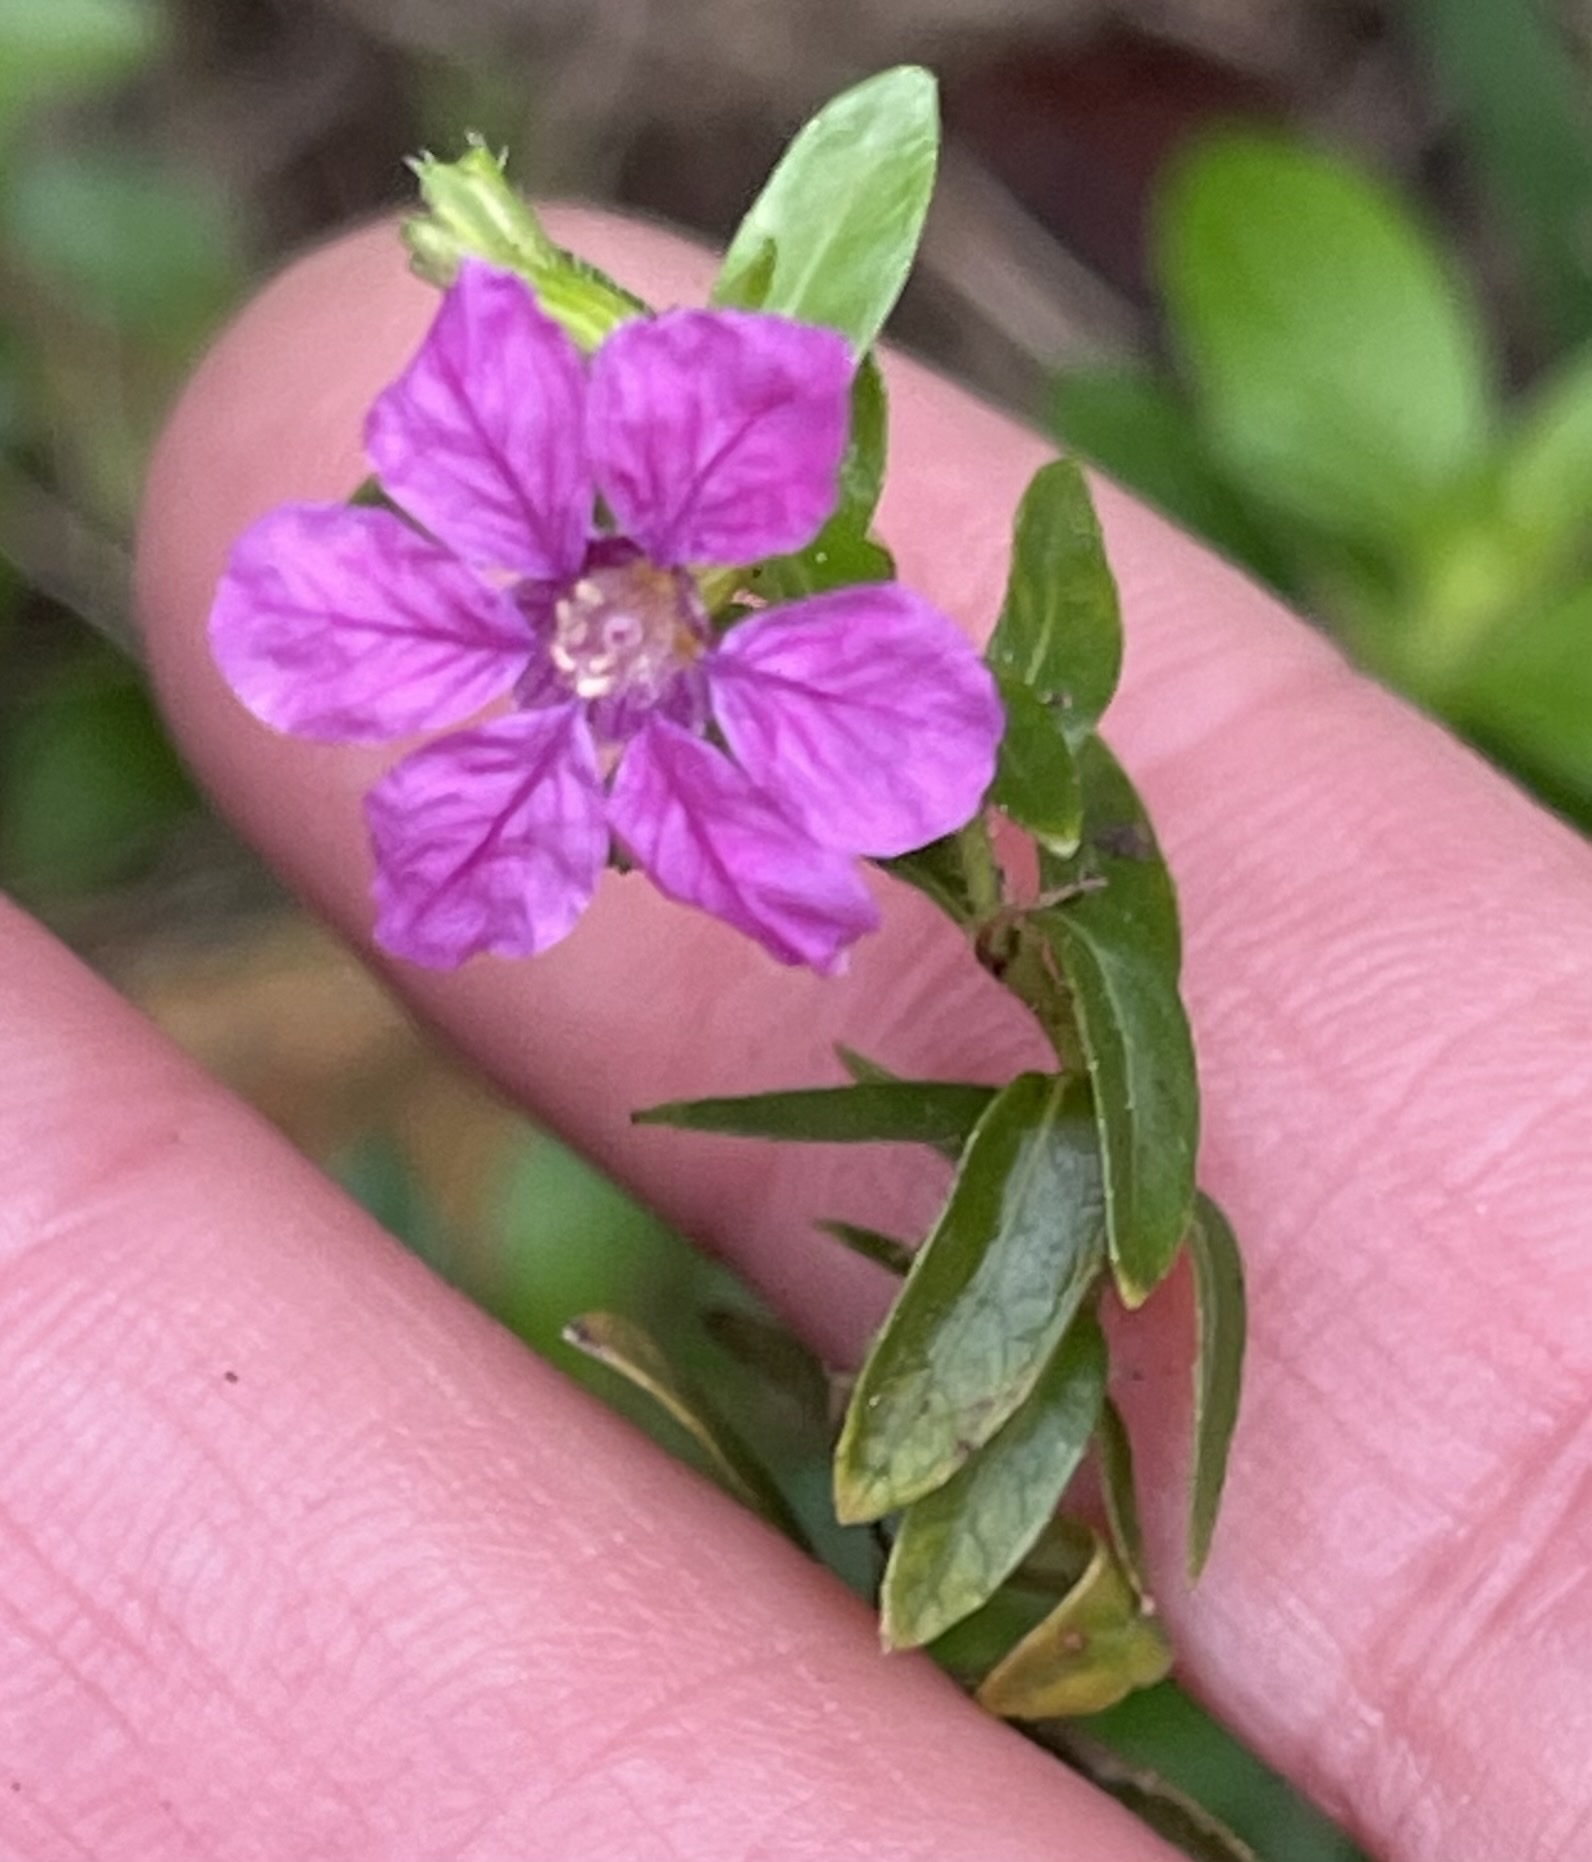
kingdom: Plantae
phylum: Tracheophyta
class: Magnoliopsida
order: Myrtales
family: Lythraceae
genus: Cuphea
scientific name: Cuphea hyssopifolia
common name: False heather
